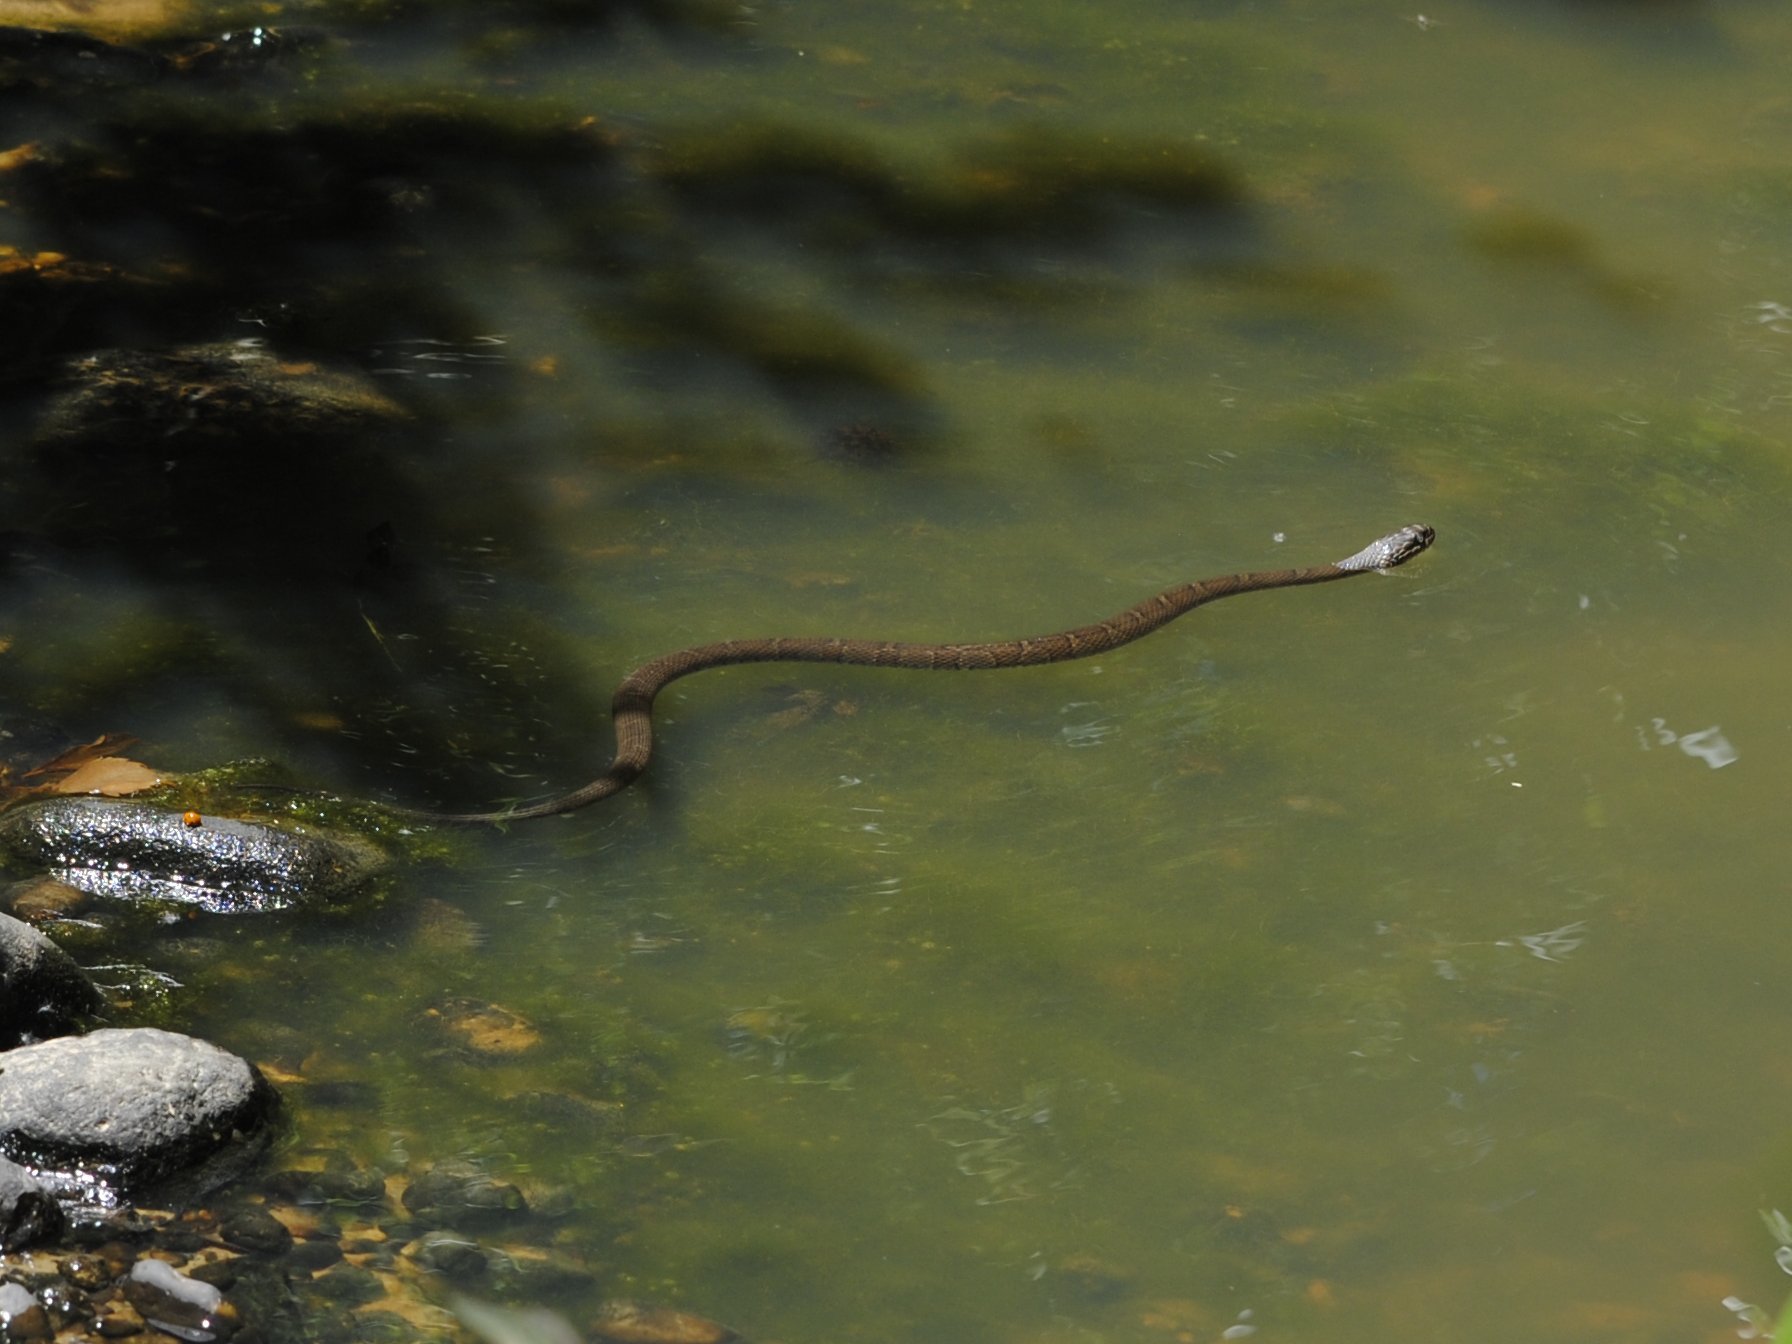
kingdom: Animalia
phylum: Chordata
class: Squamata
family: Colubridae
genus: Nerodia
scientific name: Nerodia sipedon
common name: Northern water snake
